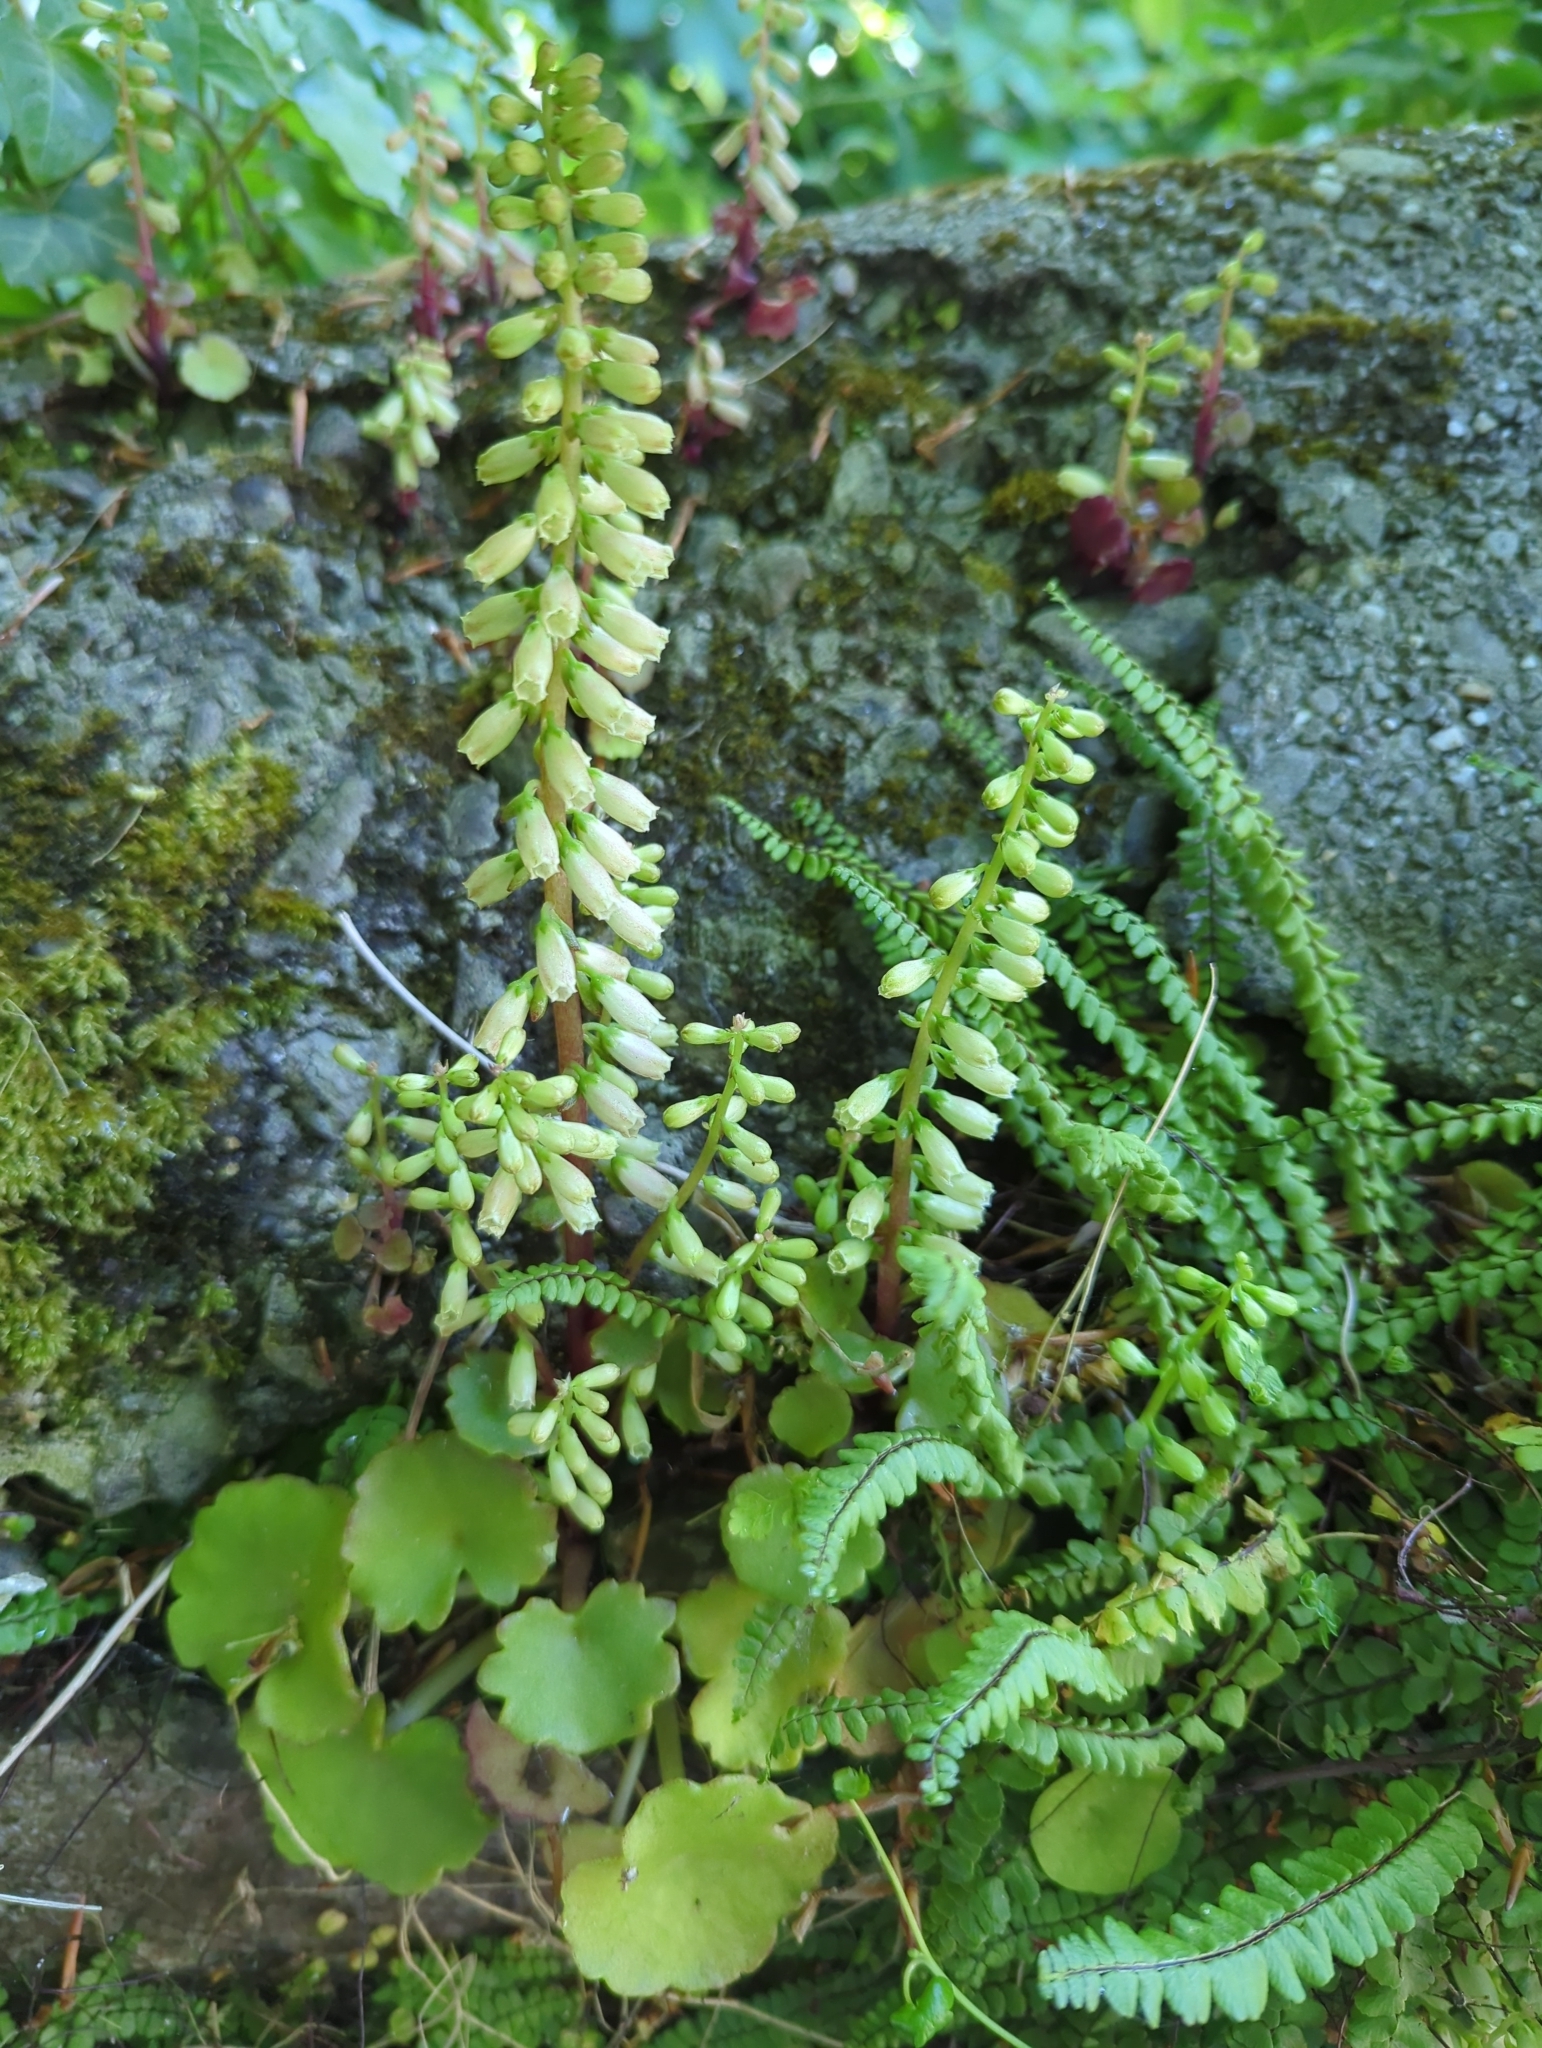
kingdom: Plantae
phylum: Tracheophyta
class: Magnoliopsida
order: Saxifragales
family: Crassulaceae
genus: Umbilicus
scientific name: Umbilicus rupestris
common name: Navelwort
